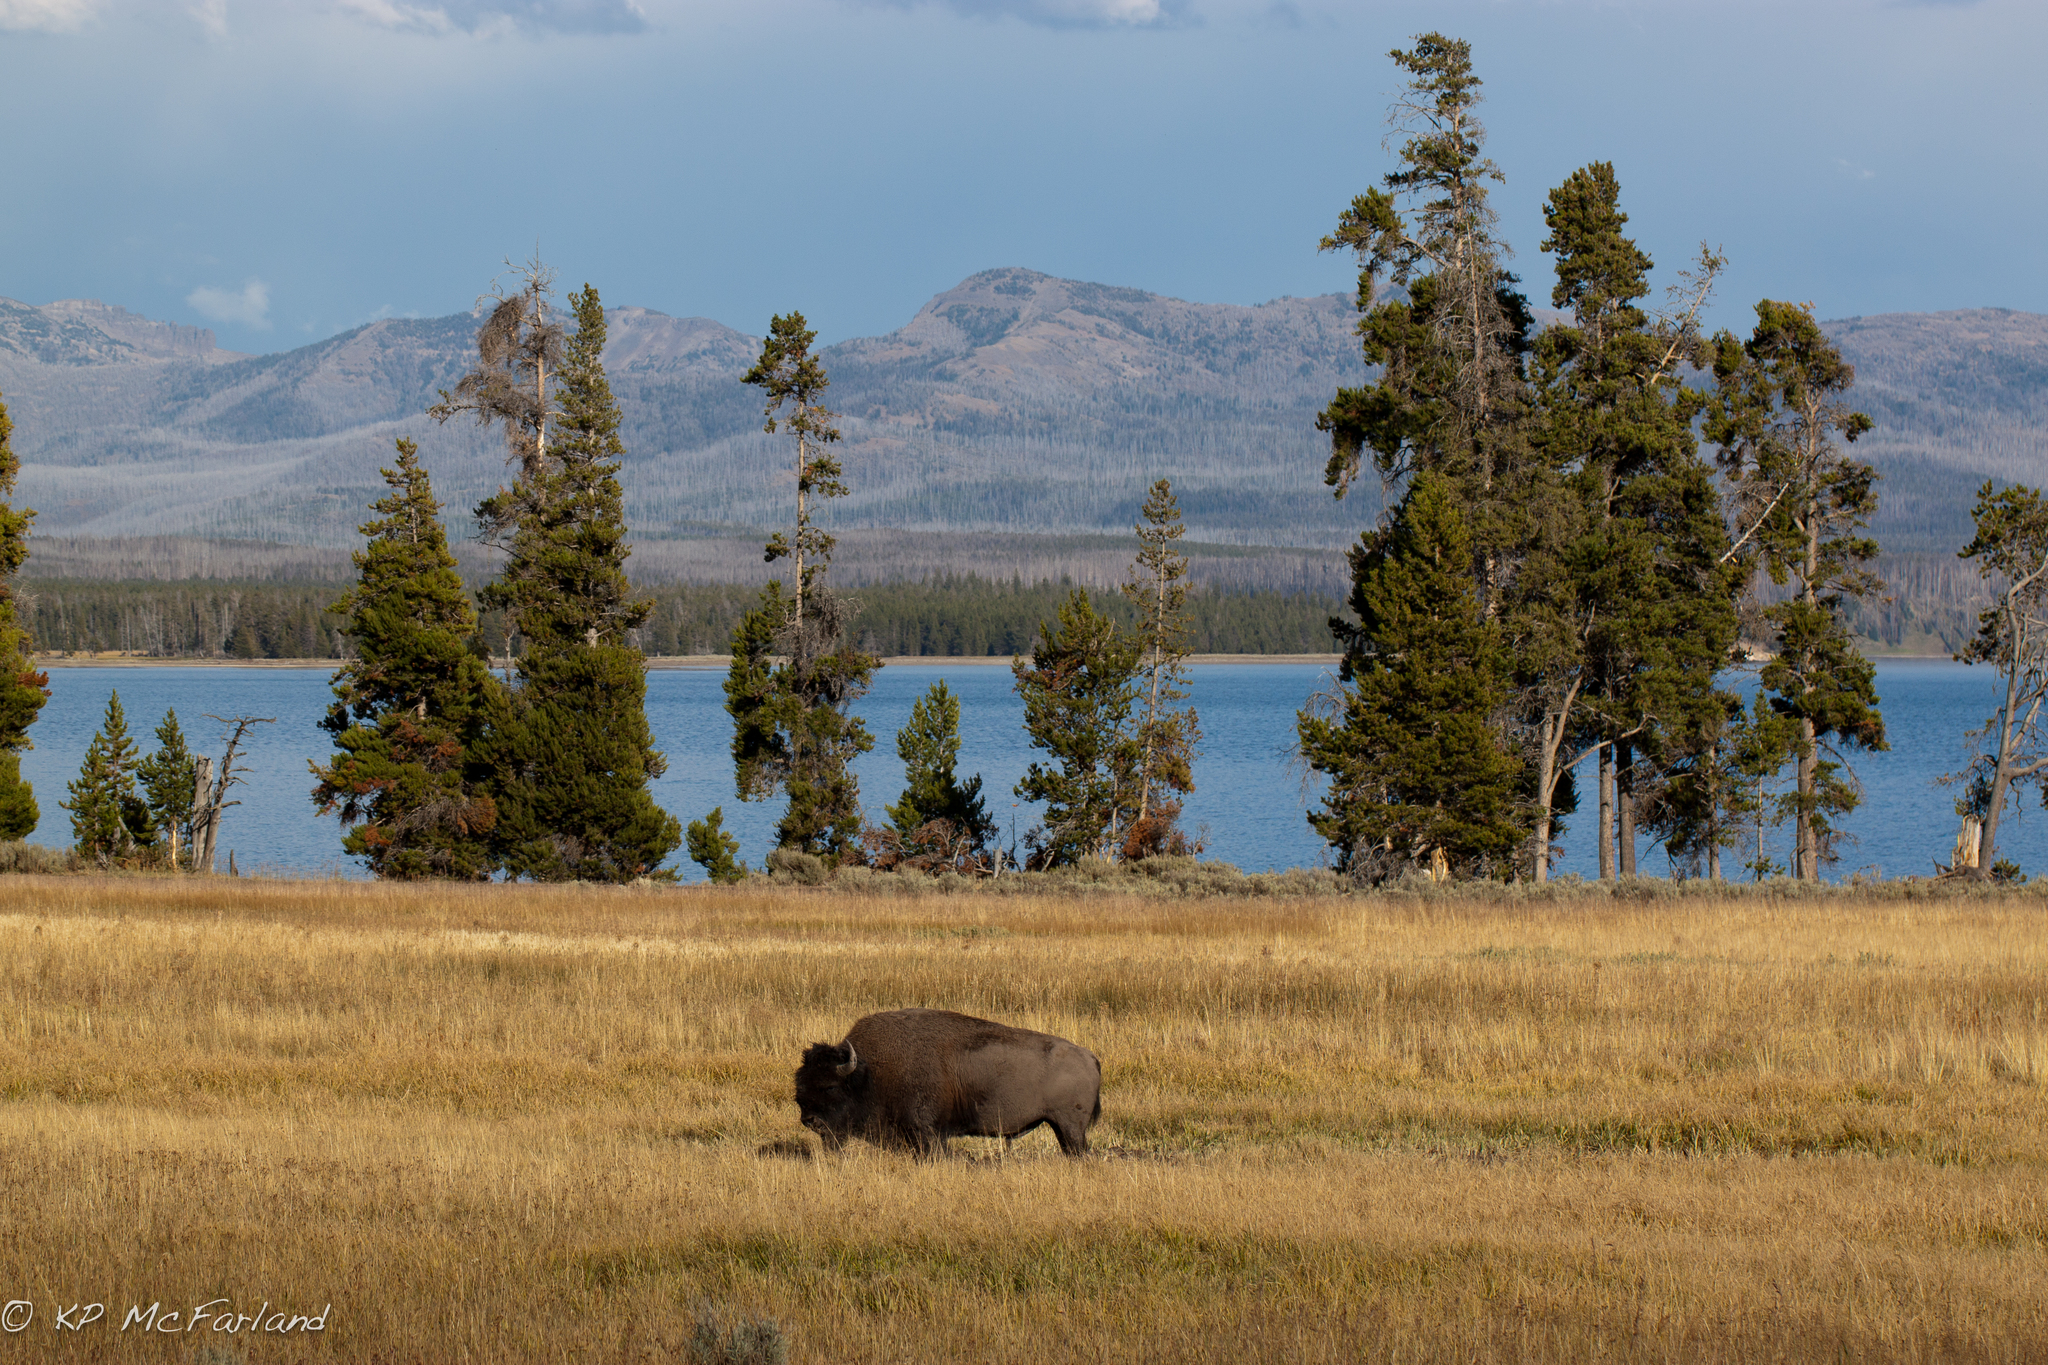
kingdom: Animalia
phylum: Chordata
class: Mammalia
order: Artiodactyla
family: Bovidae
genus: Bison
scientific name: Bison bison
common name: American bison
